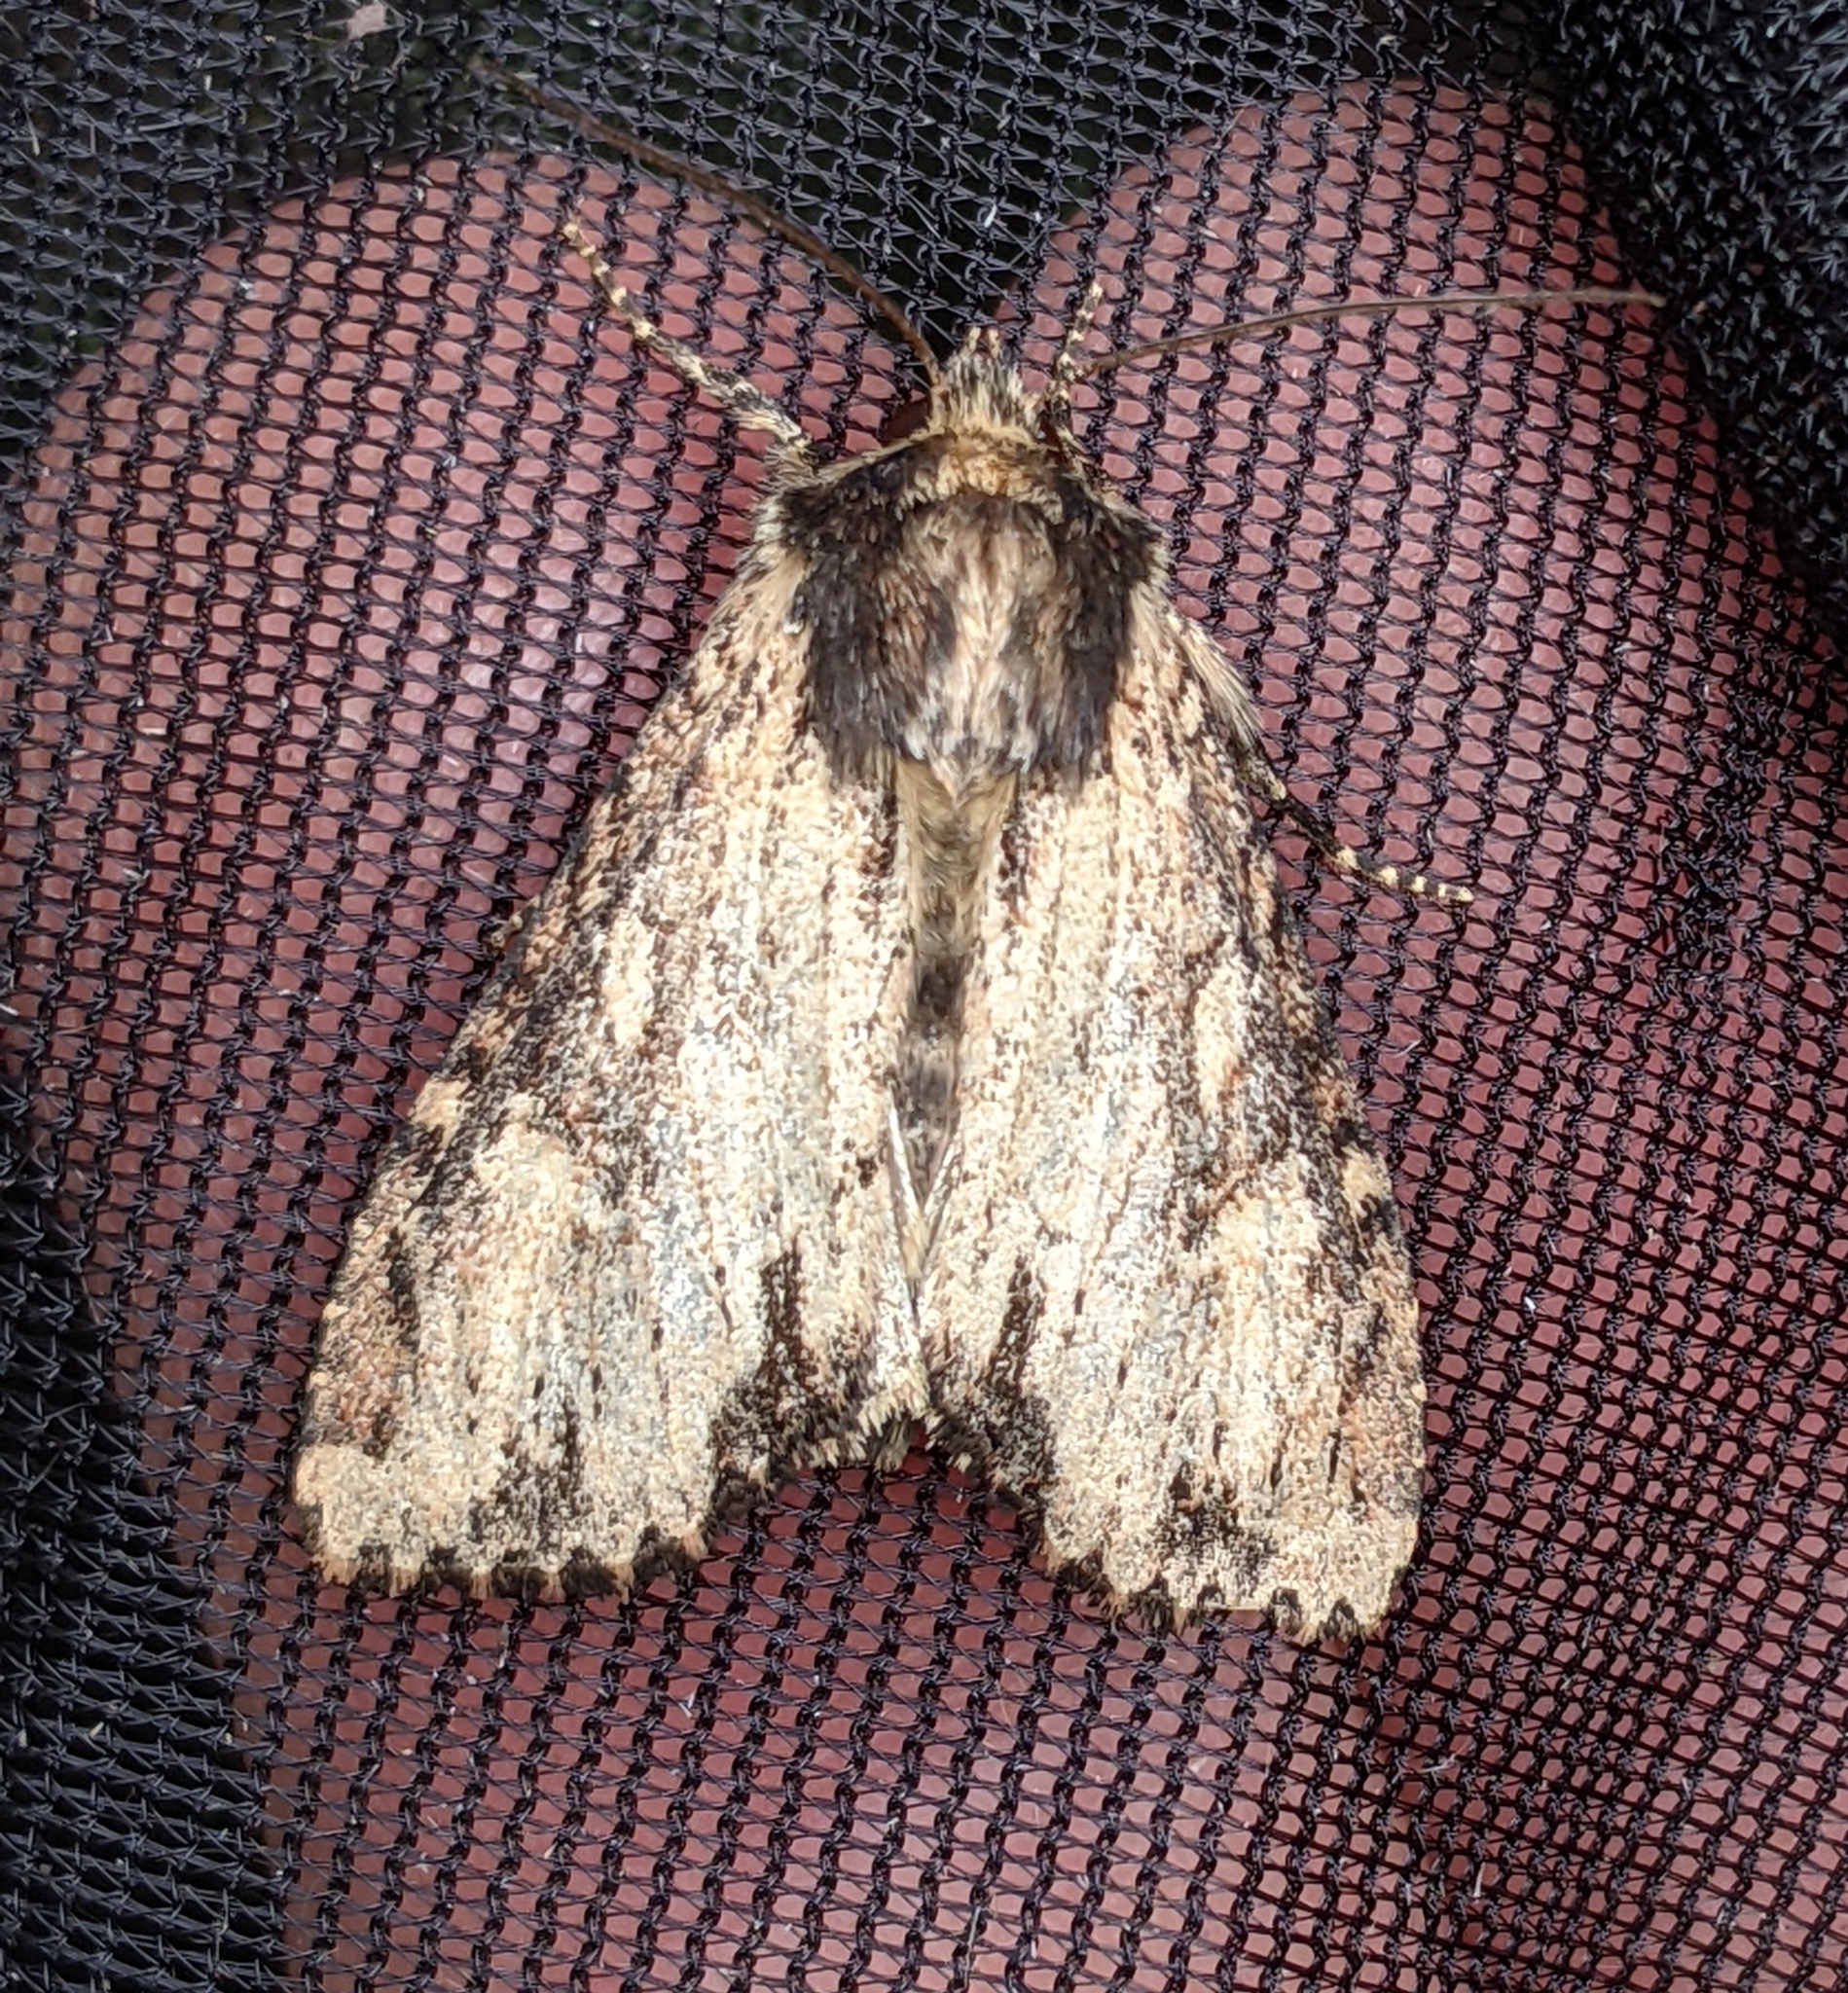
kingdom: Animalia
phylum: Arthropoda
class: Insecta
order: Lepidoptera
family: Noctuidae
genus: Apamea
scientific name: Apamea vultuosa
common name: Airy apamea moth
